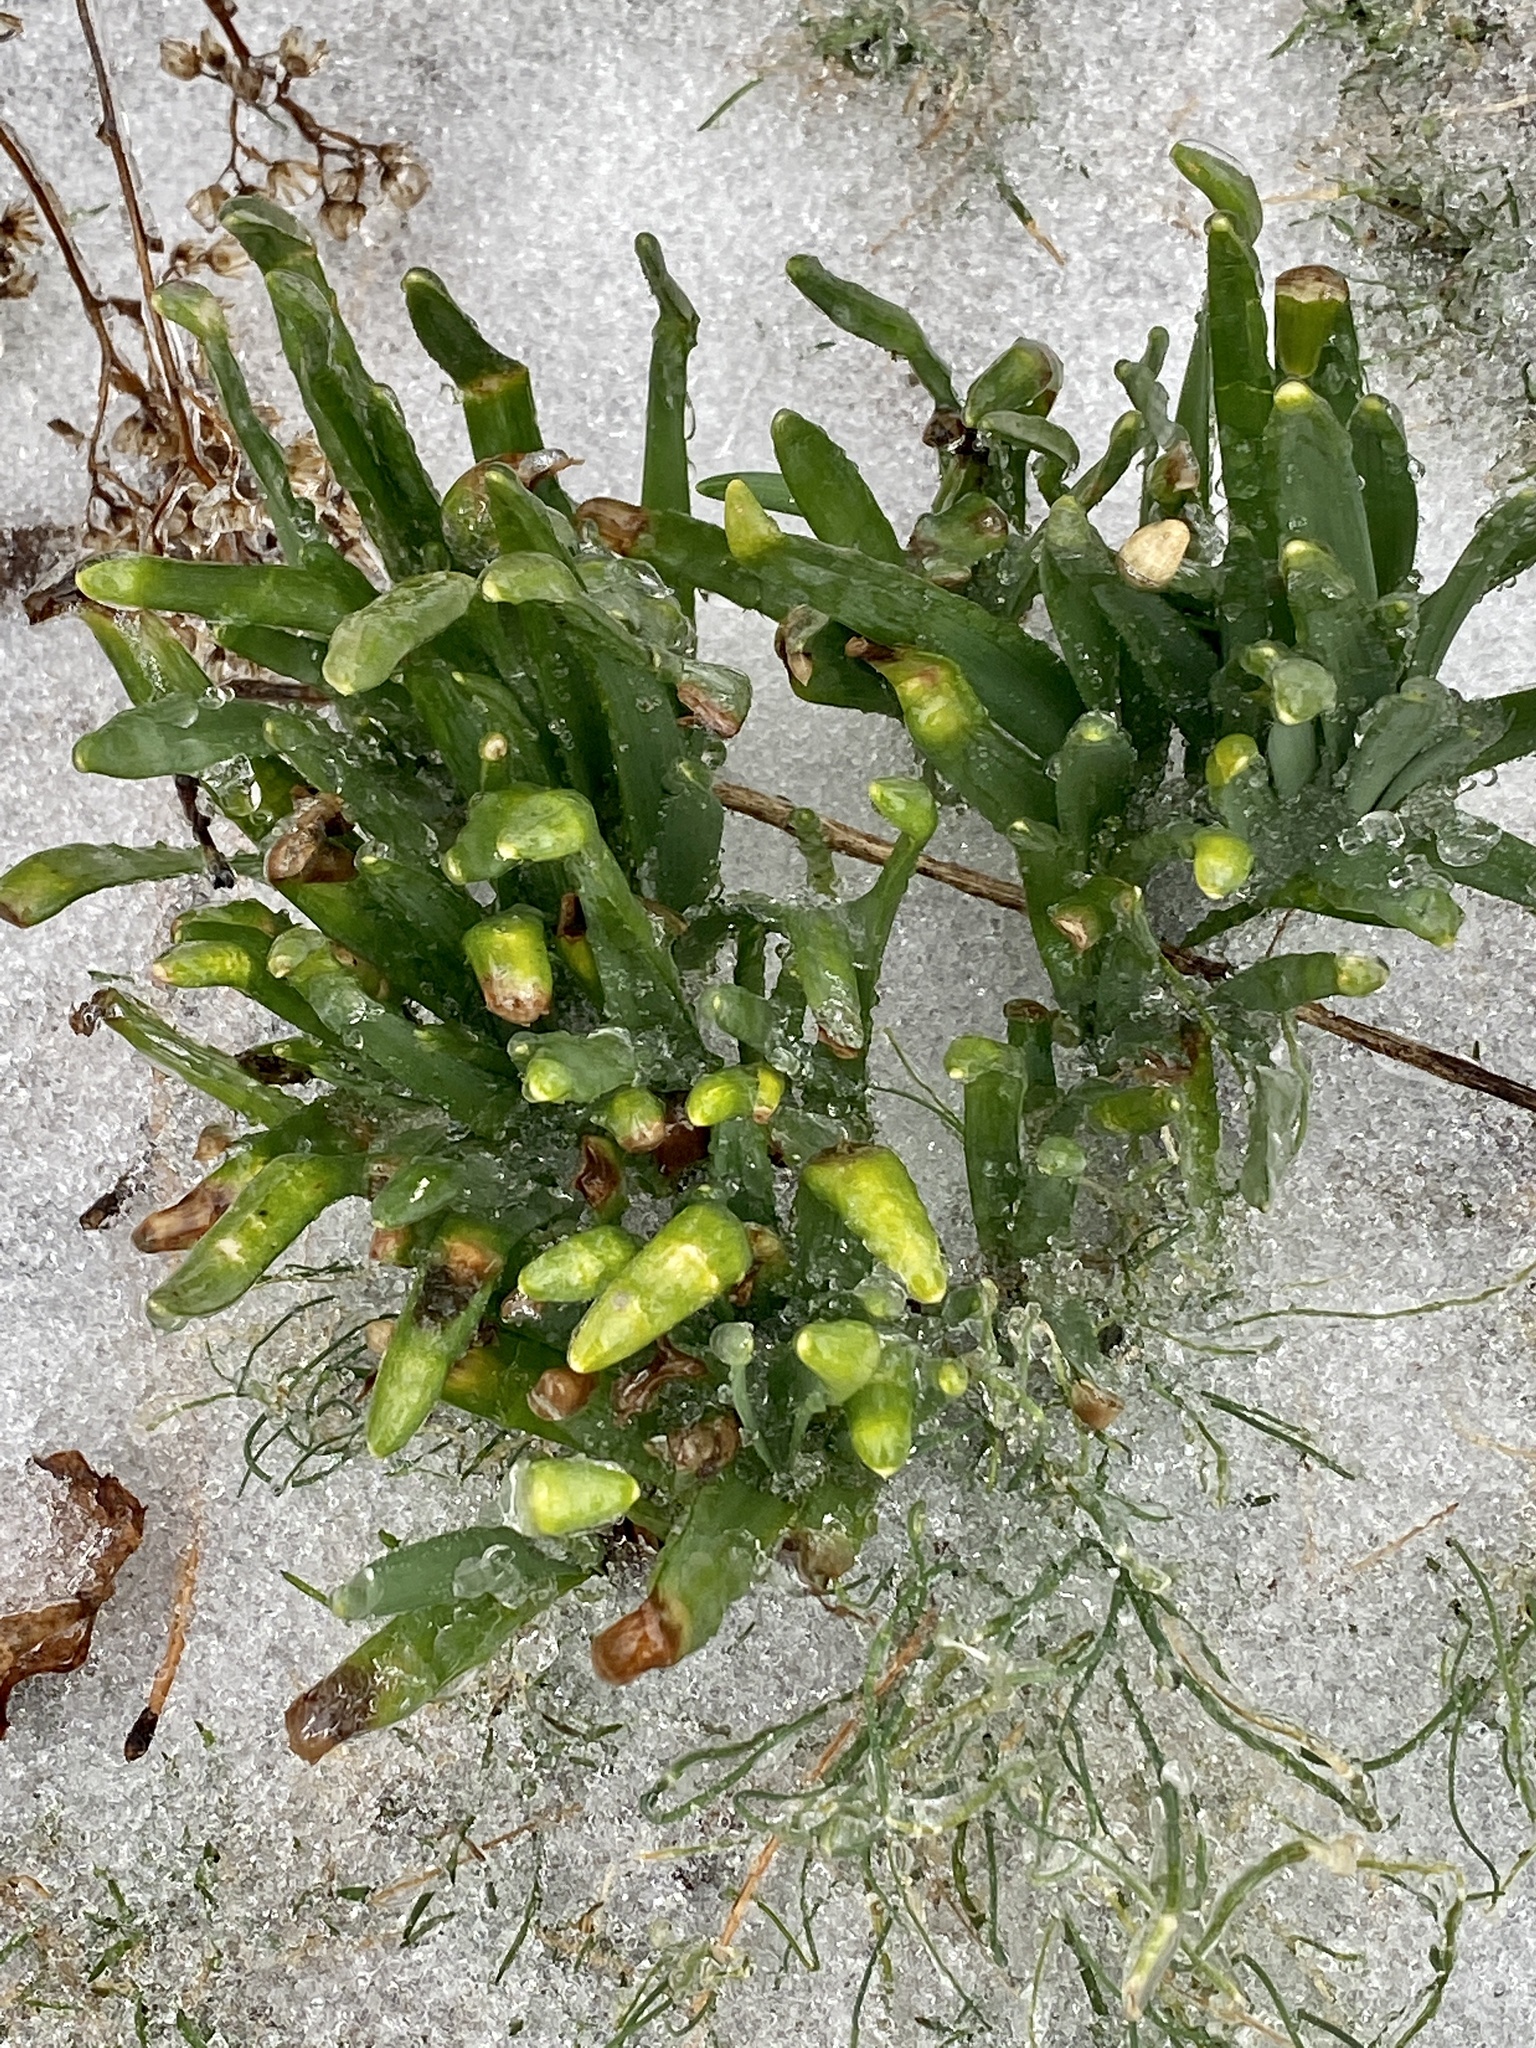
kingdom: Plantae
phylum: Tracheophyta
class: Liliopsida
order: Asparagales
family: Amaryllidaceae
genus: Narcissus
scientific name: Narcissus
